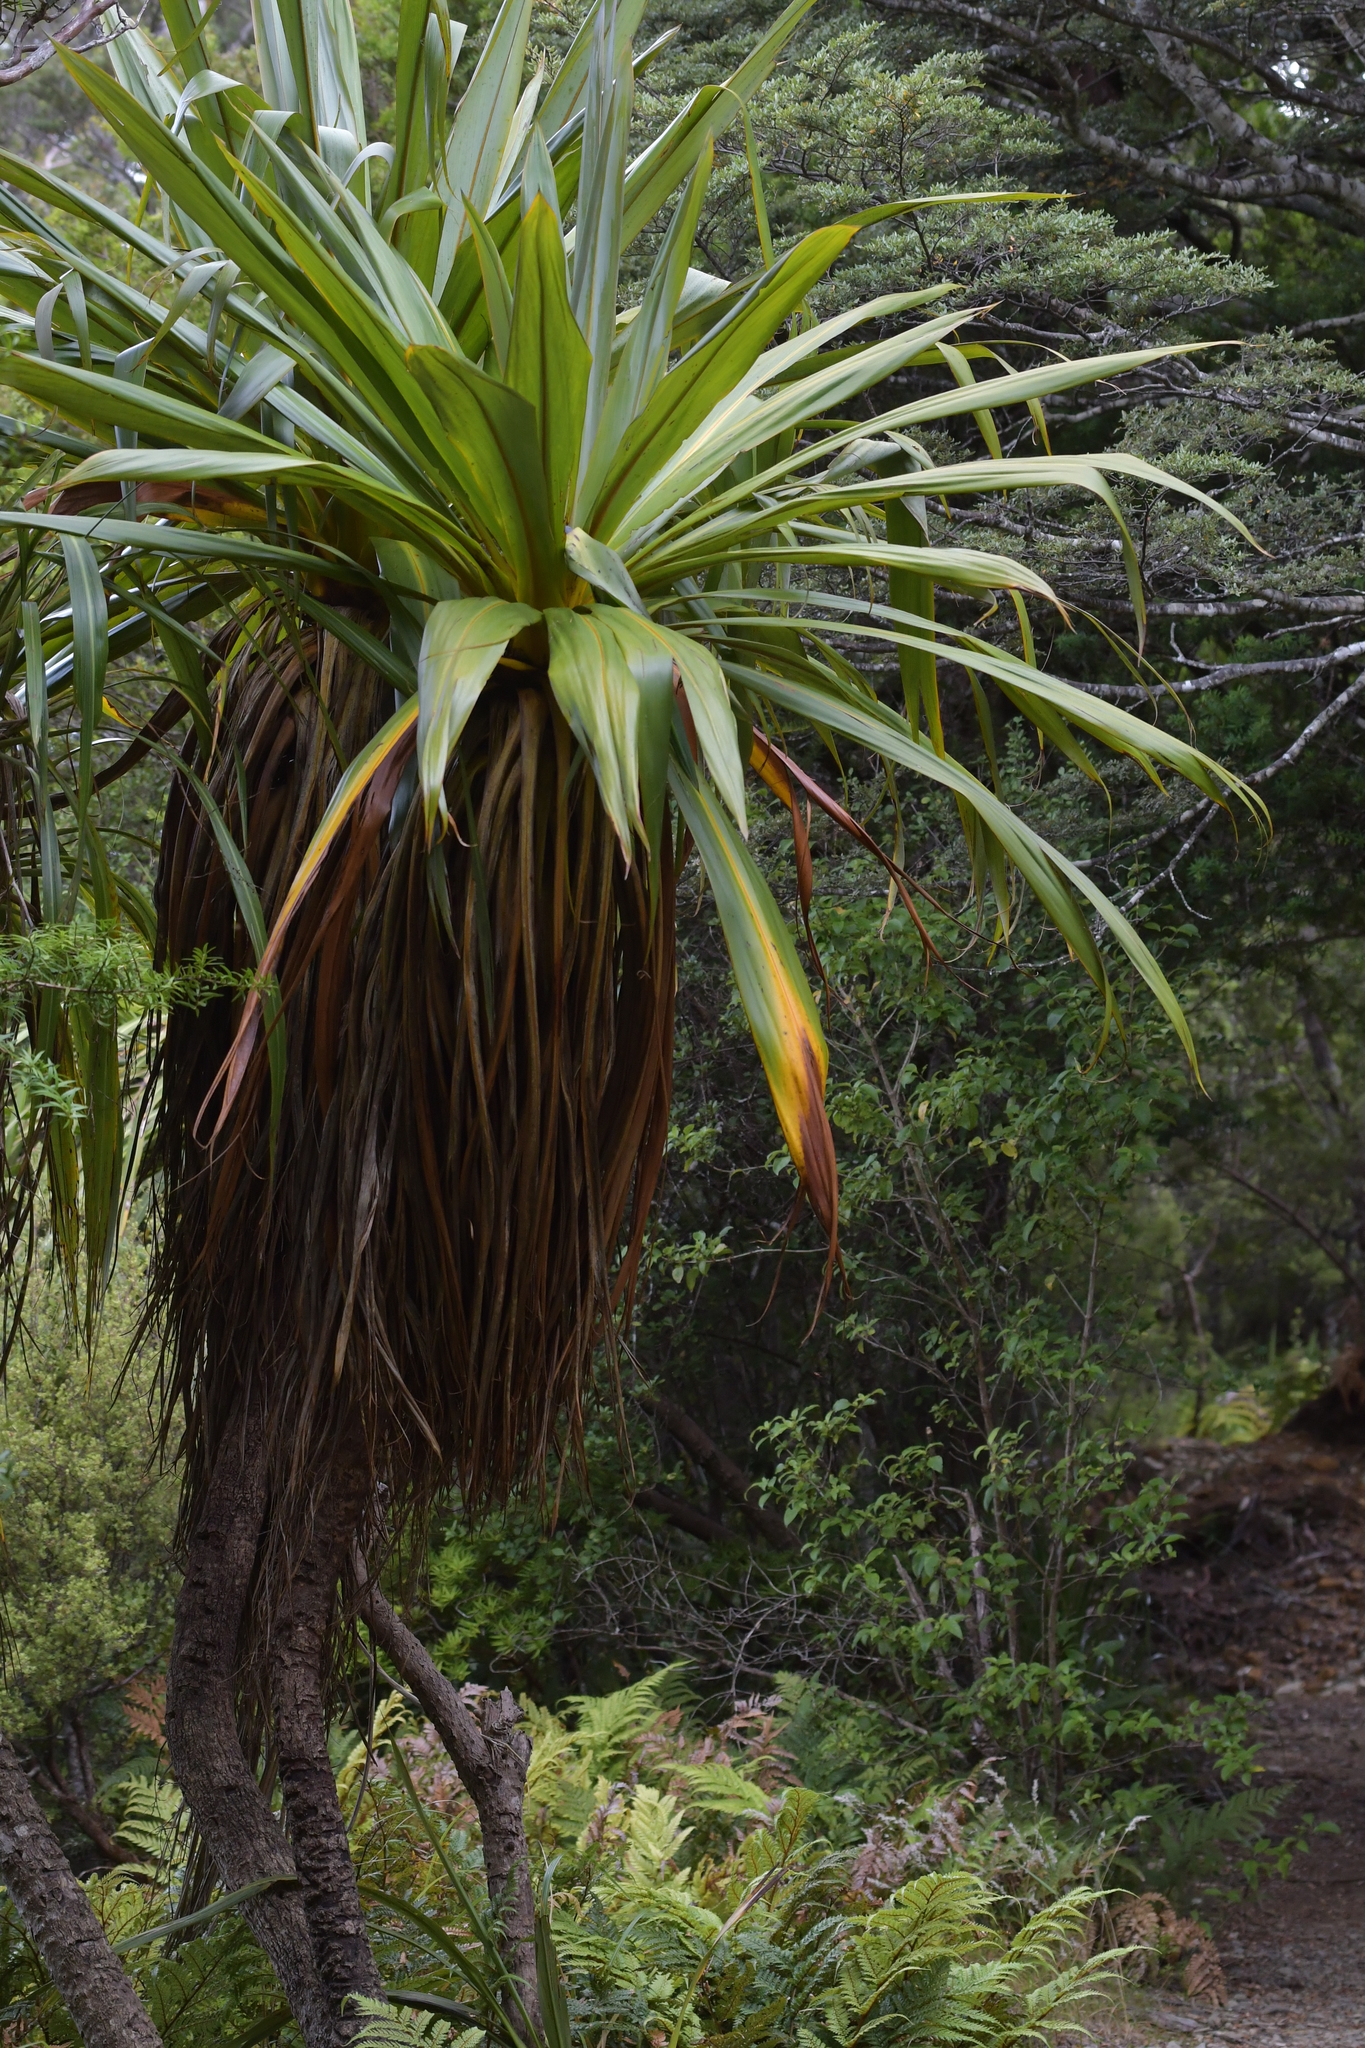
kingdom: Plantae
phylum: Tracheophyta
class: Liliopsida
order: Asparagales
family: Asparagaceae
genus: Cordyline
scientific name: Cordyline indivisa
